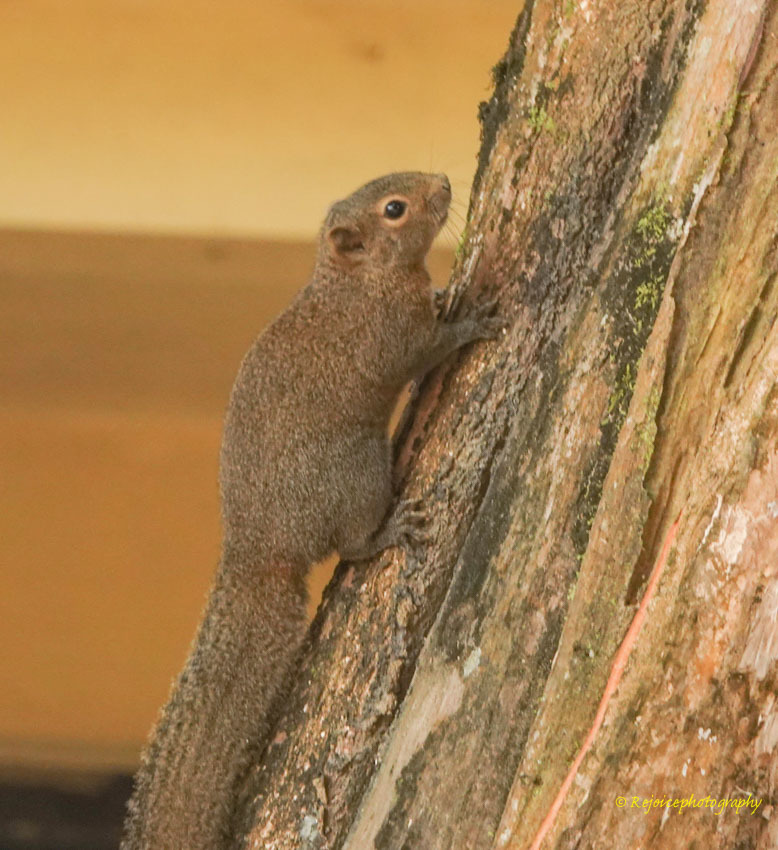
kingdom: Animalia
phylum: Chordata
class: Mammalia
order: Rodentia
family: Sciuridae
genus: Callosciurus
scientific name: Callosciurus pygerythrus
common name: Irrawaddy squirrel
